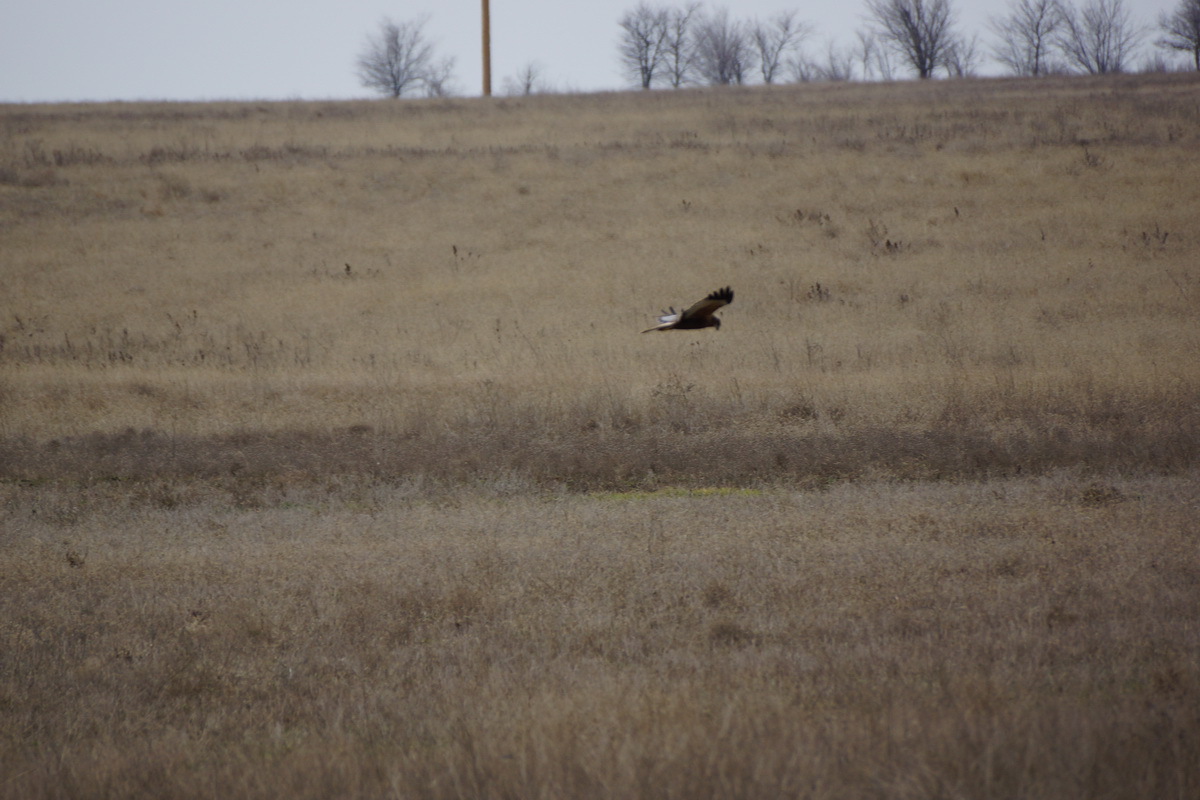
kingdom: Animalia
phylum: Chordata
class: Aves
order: Accipitriformes
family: Accipitridae
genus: Circus
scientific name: Circus aeruginosus
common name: Western marsh harrier
